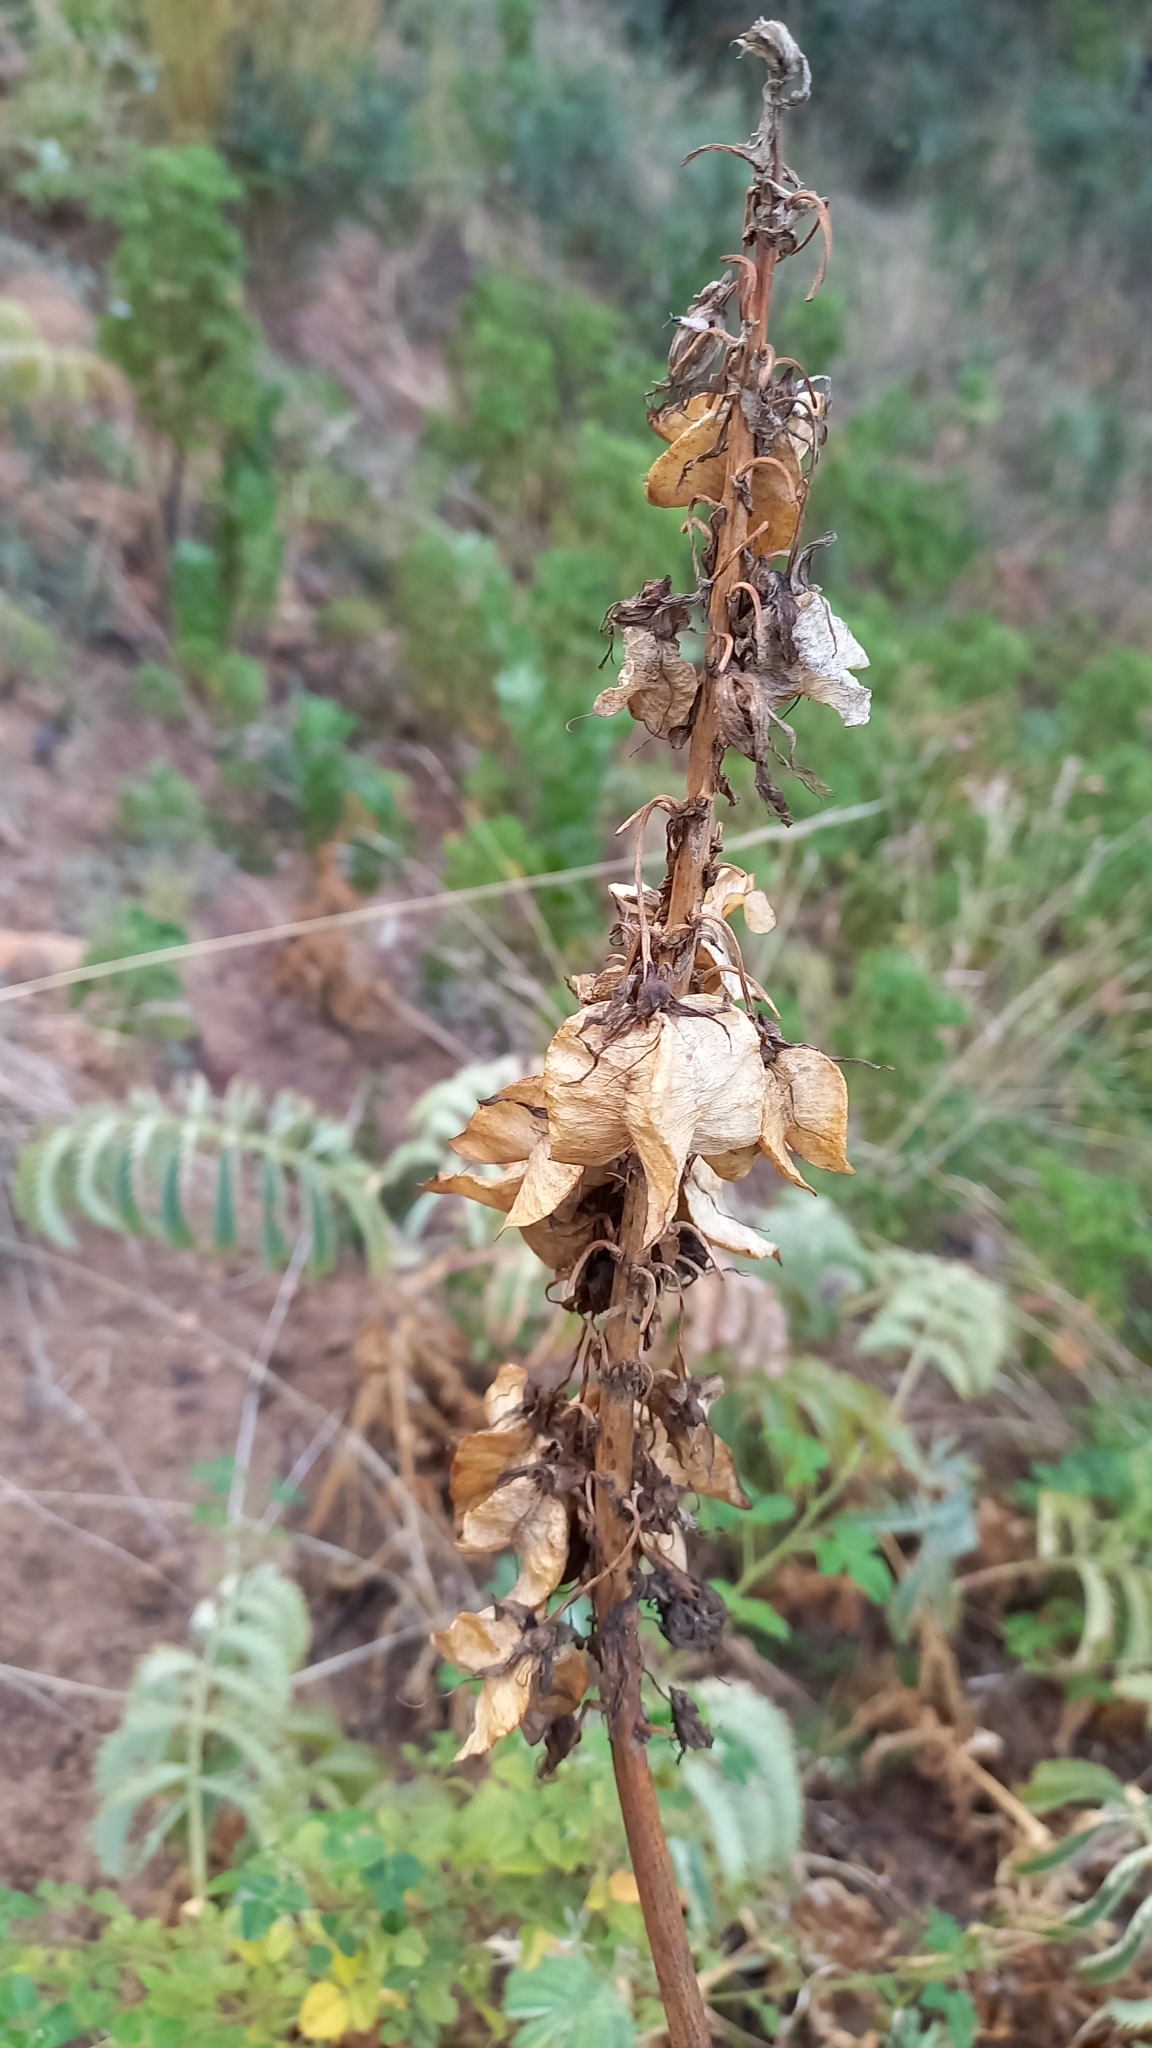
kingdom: Plantae
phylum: Tracheophyta
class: Magnoliopsida
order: Geraniales
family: Melianthaceae
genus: Melianthus
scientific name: Melianthus major
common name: Honey-flower
